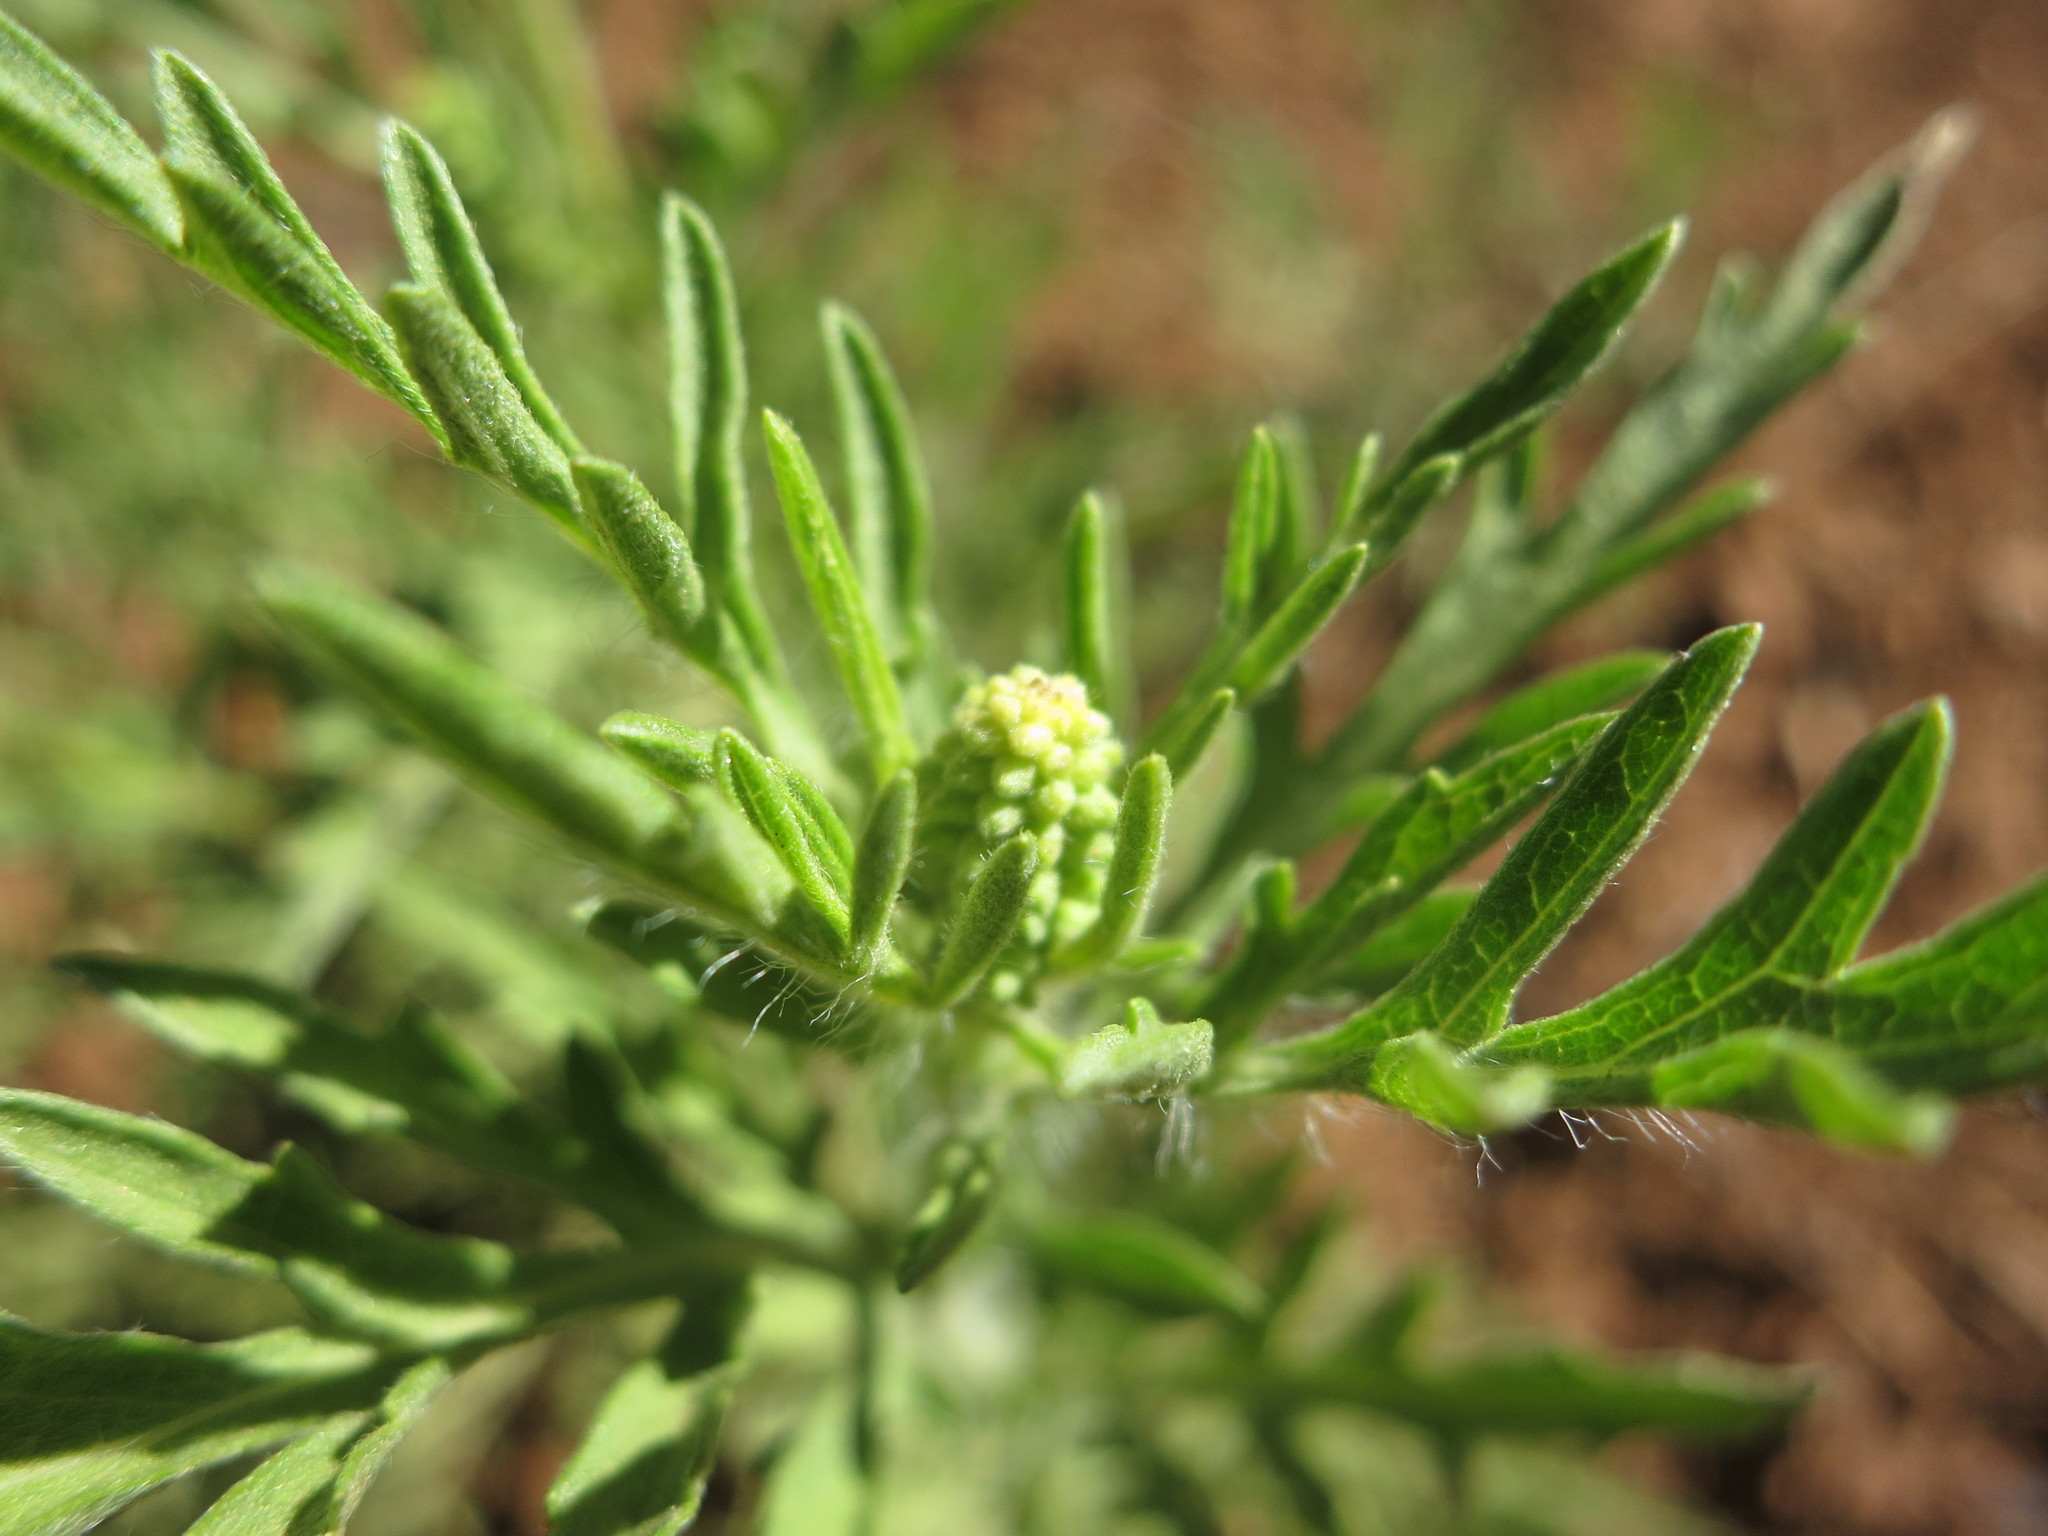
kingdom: Plantae
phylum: Tracheophyta
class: Magnoliopsida
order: Asterales
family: Asteraceae
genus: Ambrosia
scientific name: Ambrosia psilostachya
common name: Perennial ragweed
